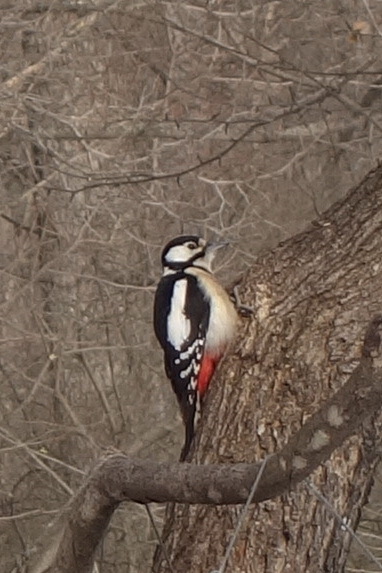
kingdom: Animalia
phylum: Chordata
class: Aves
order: Piciformes
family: Picidae
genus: Dendrocopos
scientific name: Dendrocopos major
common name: Great spotted woodpecker
